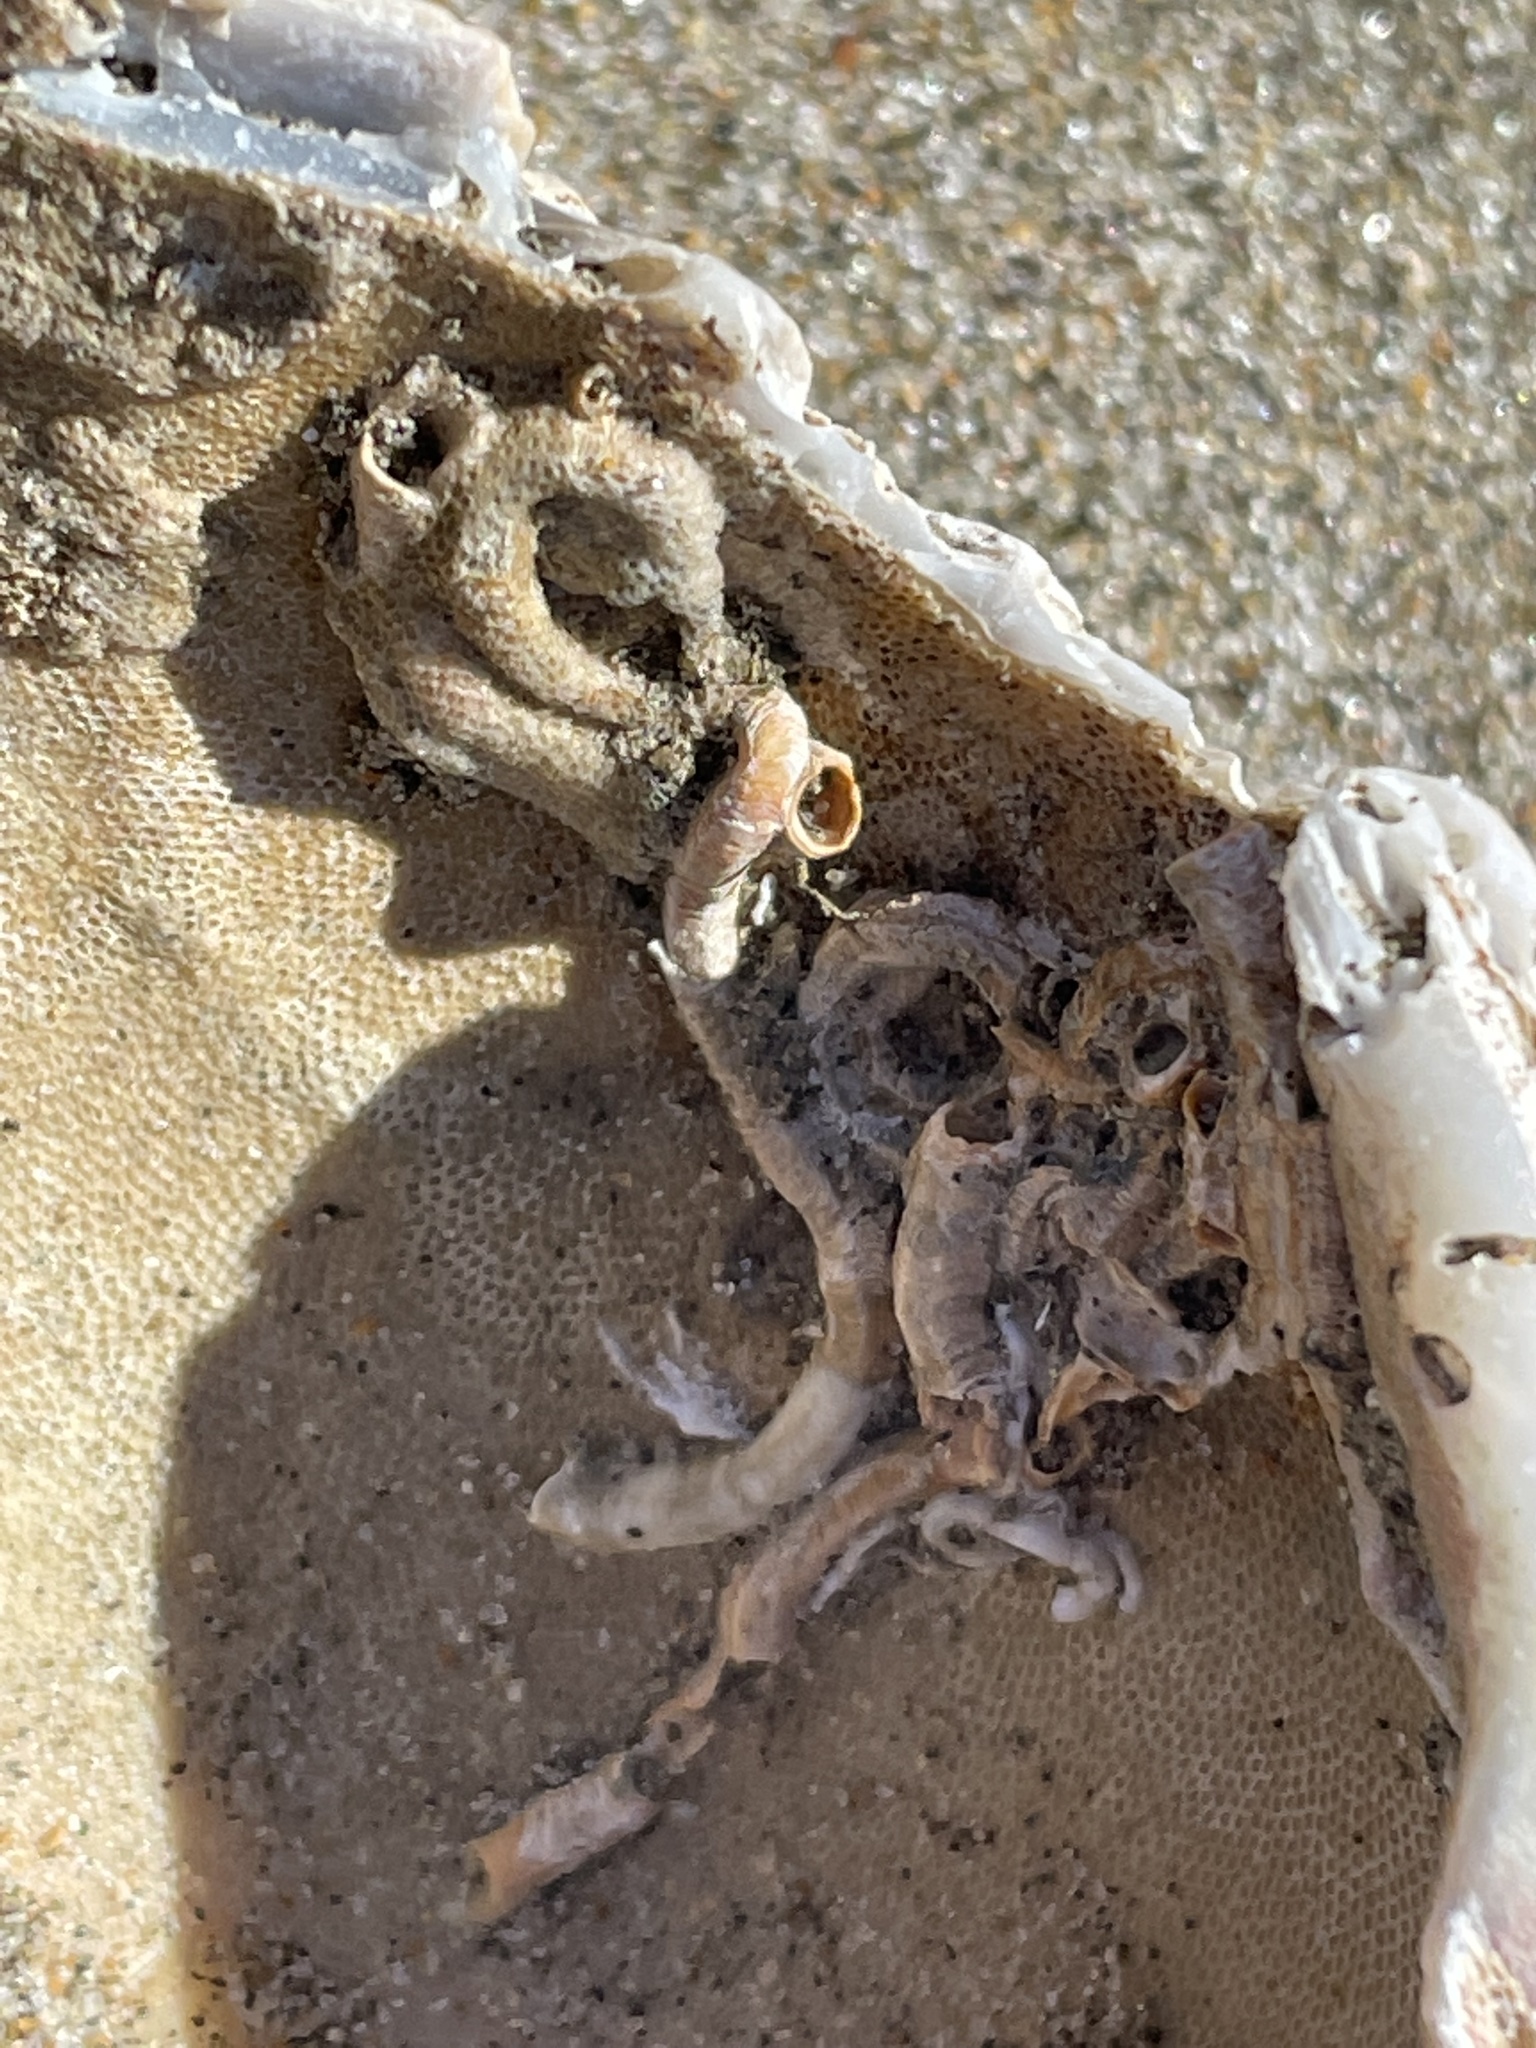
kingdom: Animalia
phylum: Mollusca
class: Bivalvia
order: Venerida
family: Veneridae
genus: Saxidomus
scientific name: Saxidomus nuttalli
